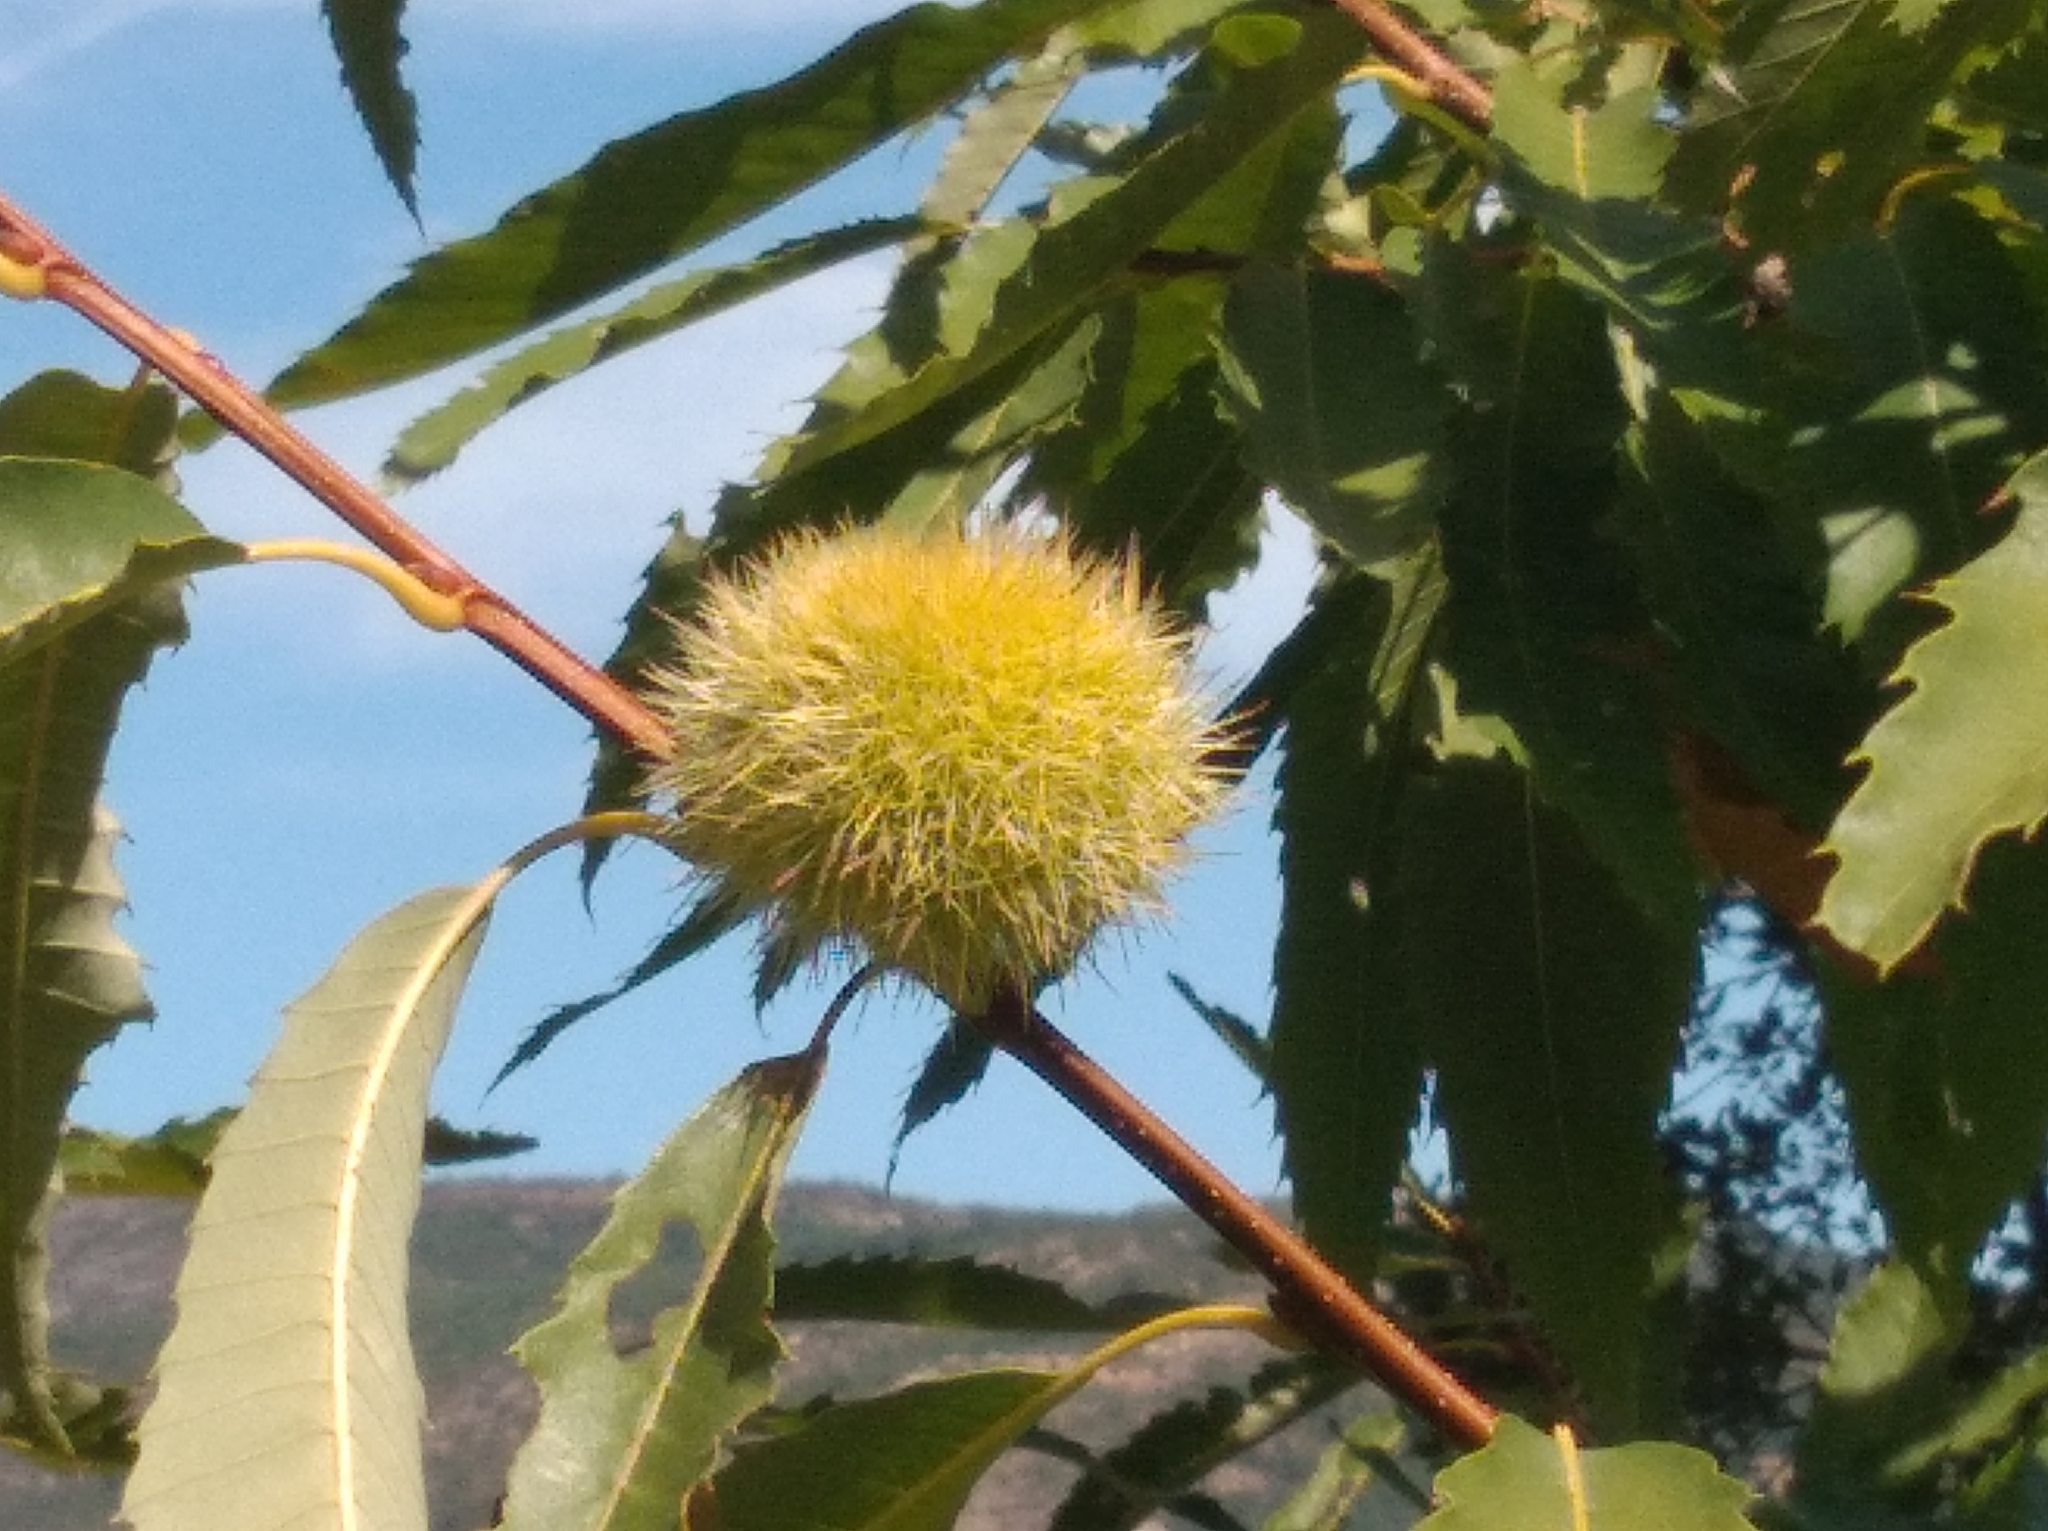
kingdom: Plantae
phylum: Tracheophyta
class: Magnoliopsida
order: Fagales
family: Fagaceae
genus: Castanea
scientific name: Castanea sativa
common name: Sweet chestnut
